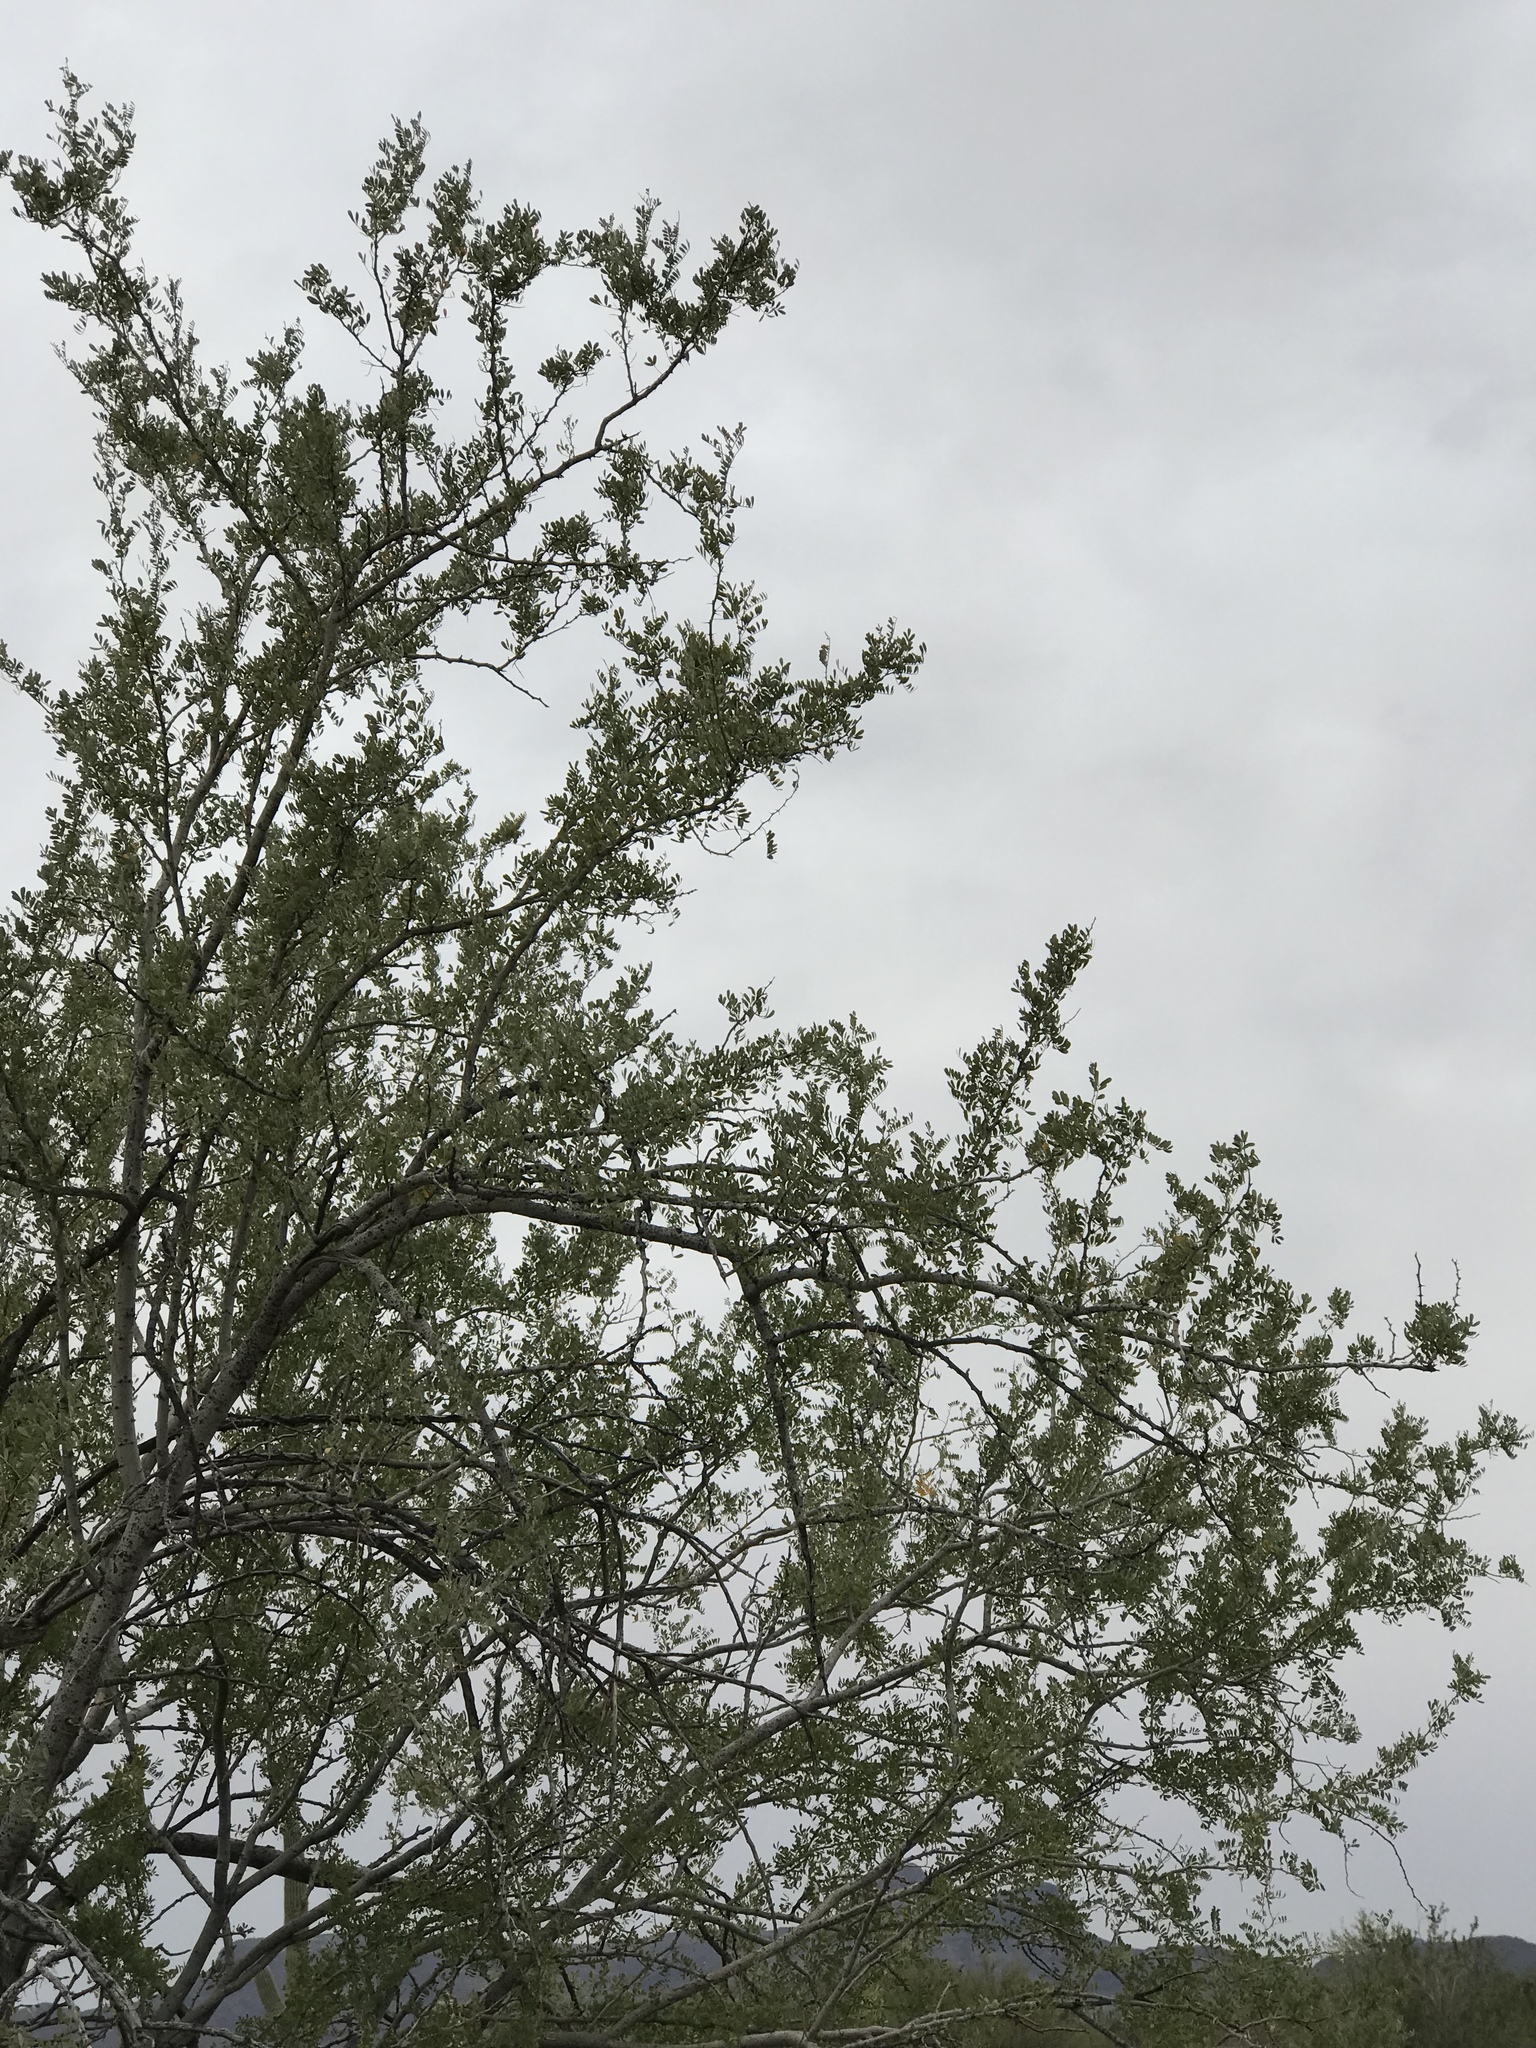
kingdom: Plantae
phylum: Tracheophyta
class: Magnoliopsida
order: Fabales
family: Fabaceae
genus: Olneya
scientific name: Olneya tesota
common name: Desert ironwood
